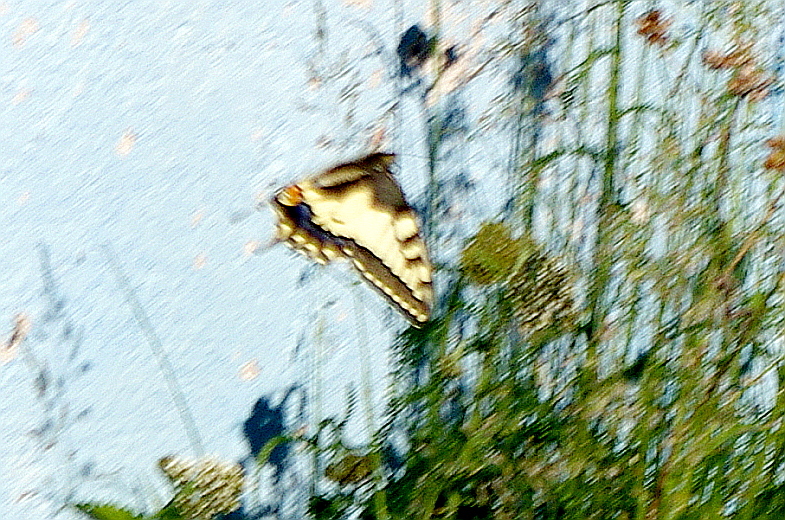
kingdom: Animalia
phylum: Arthropoda
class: Insecta
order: Lepidoptera
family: Papilionidae
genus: Papilio
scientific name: Papilio machaon
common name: Swallowtail
